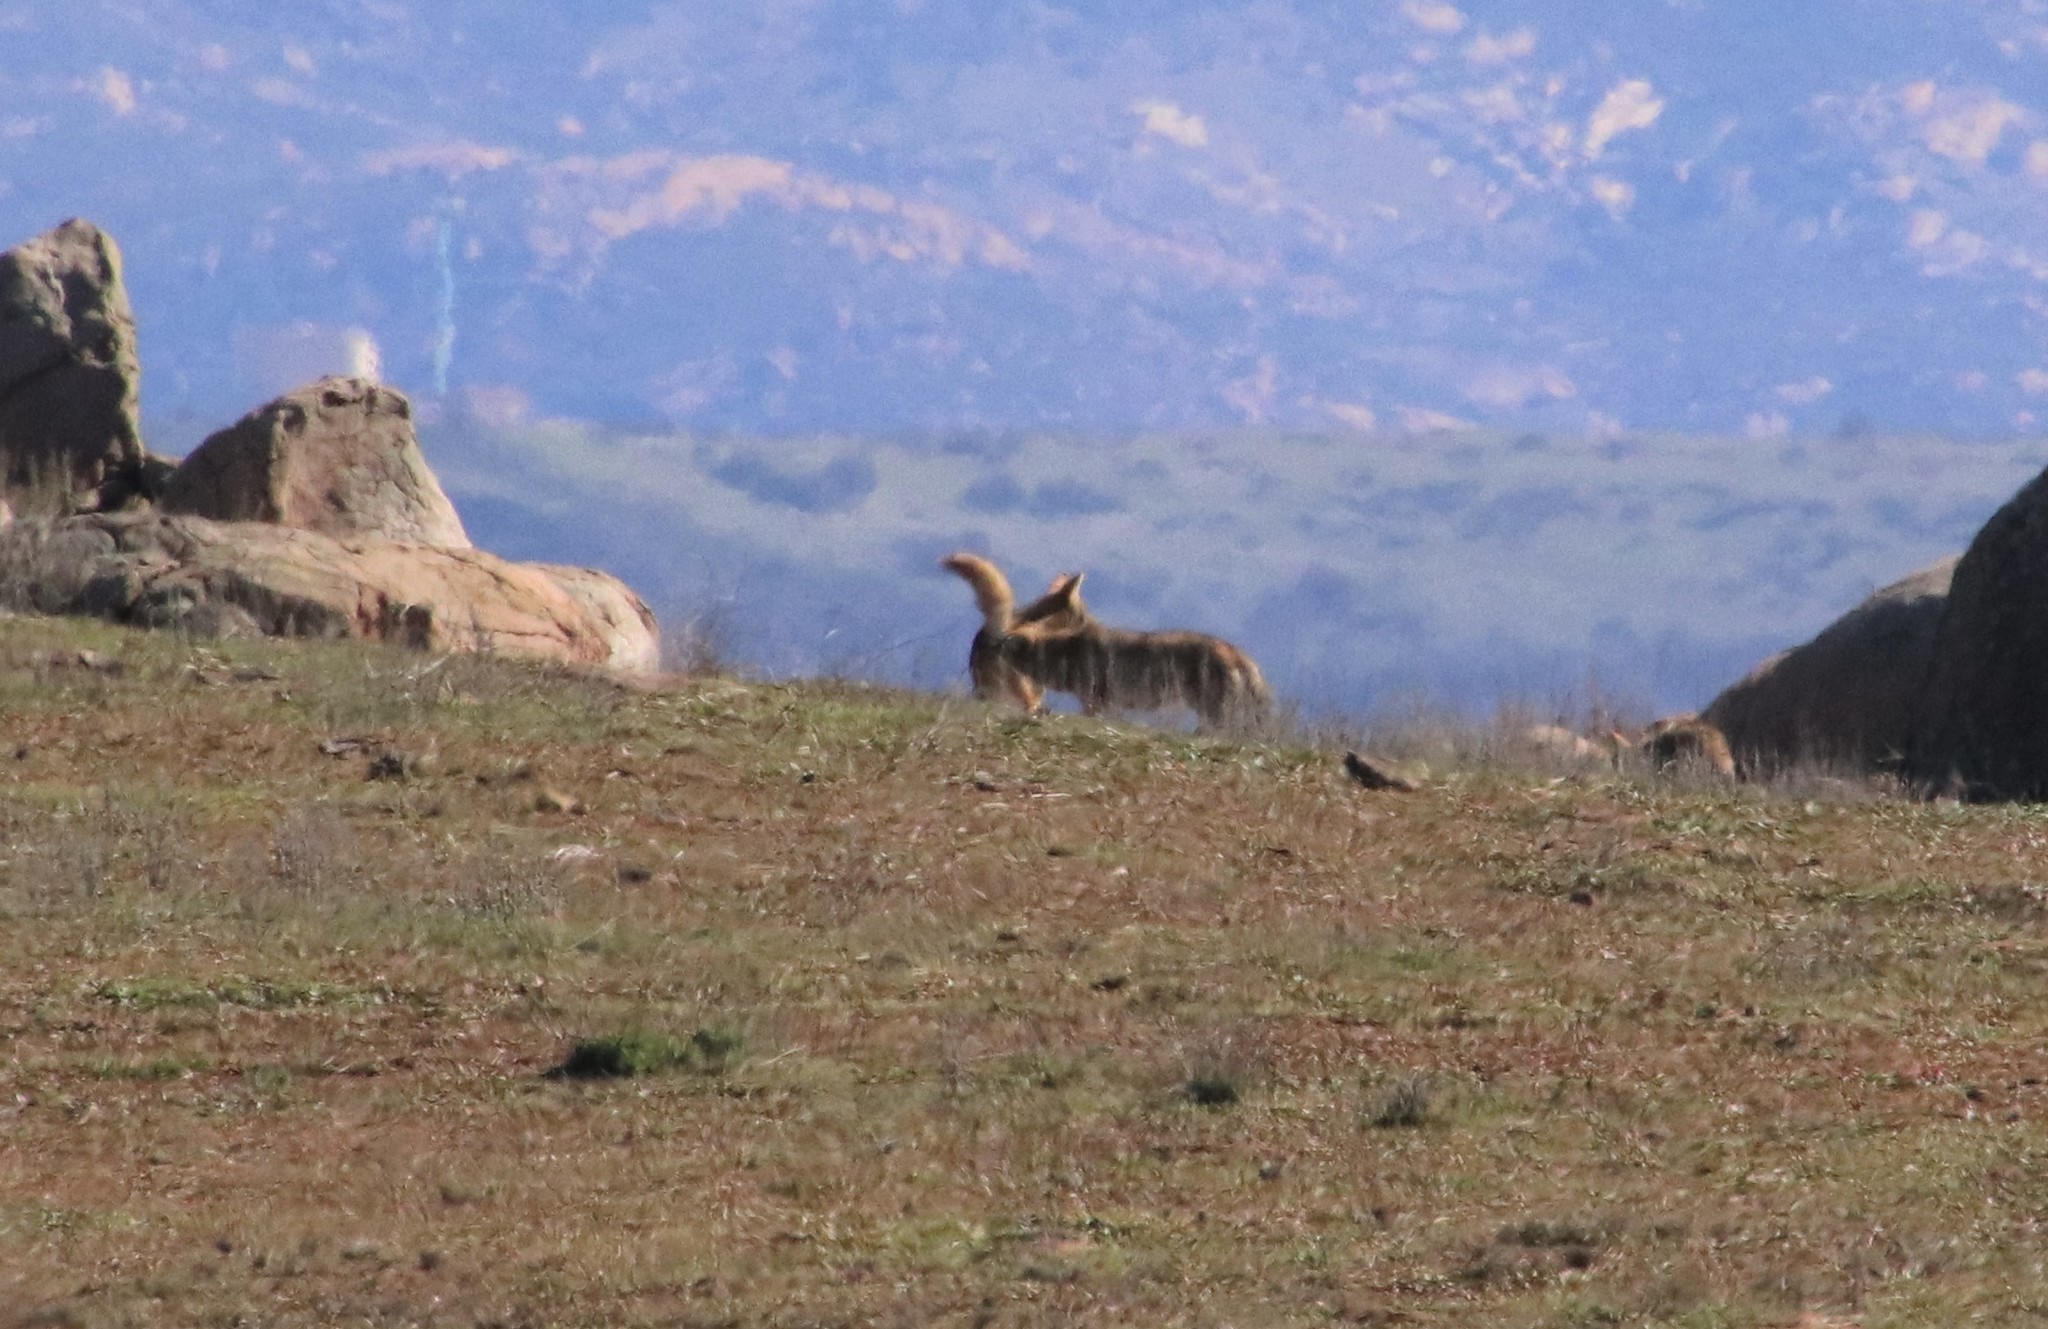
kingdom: Animalia
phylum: Chordata
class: Mammalia
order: Carnivora
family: Canidae
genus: Canis
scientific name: Canis latrans
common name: Coyote
